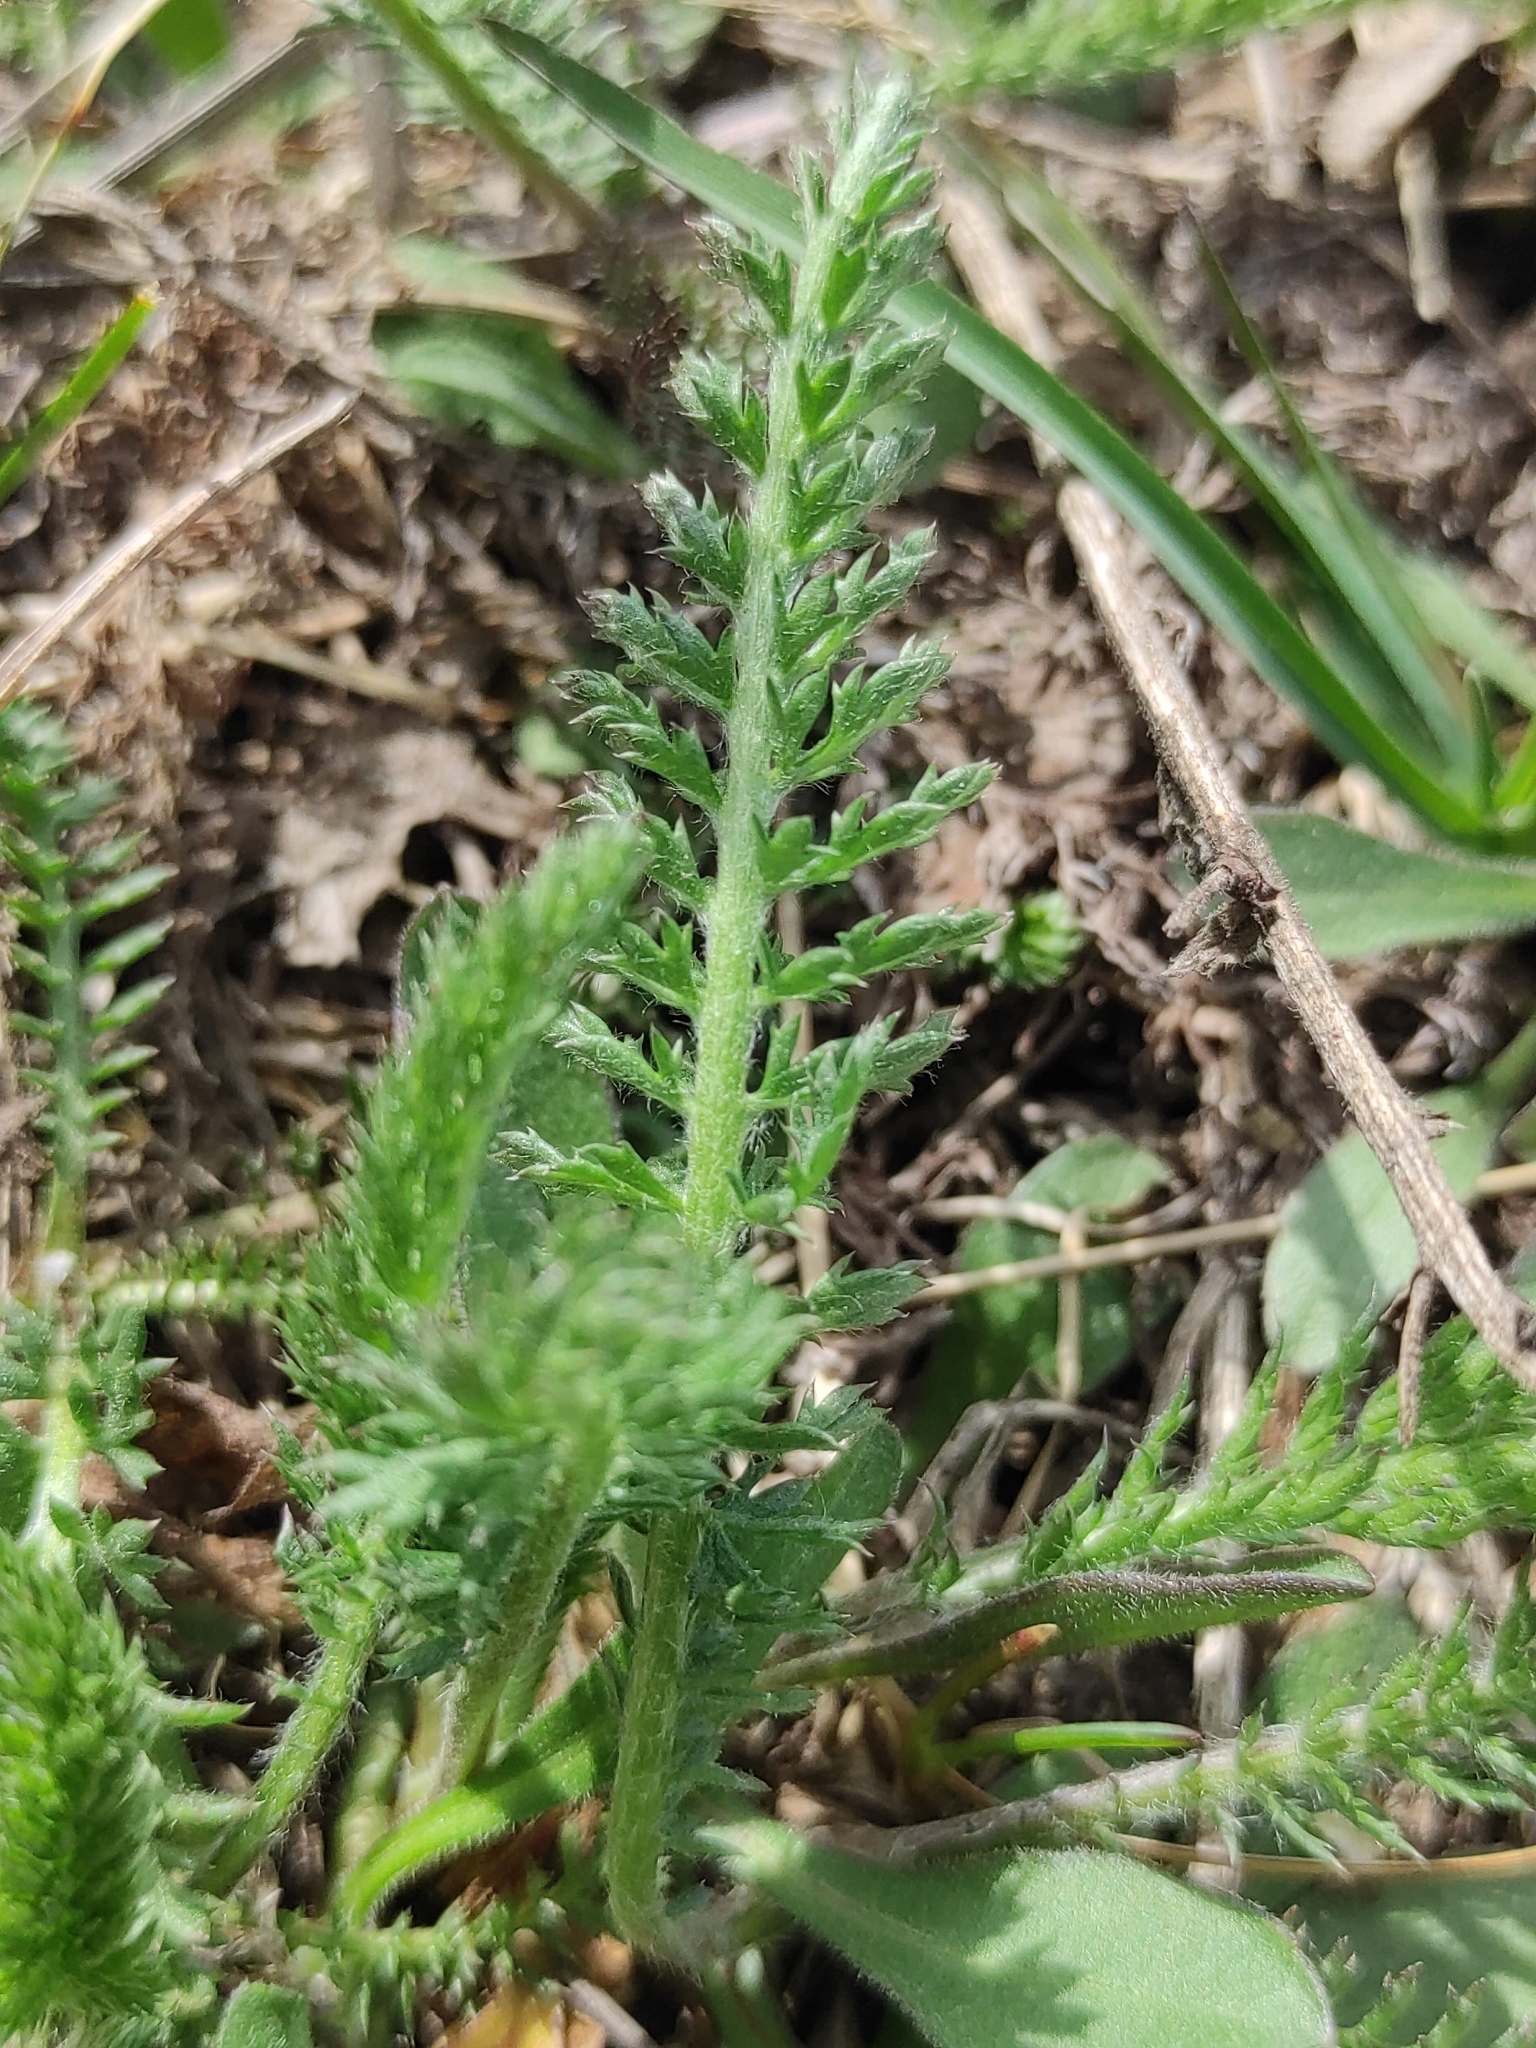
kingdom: Plantae
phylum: Tracheophyta
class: Magnoliopsida
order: Asterales
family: Asteraceae
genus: Achillea
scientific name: Achillea millefolium
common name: Yarrow
